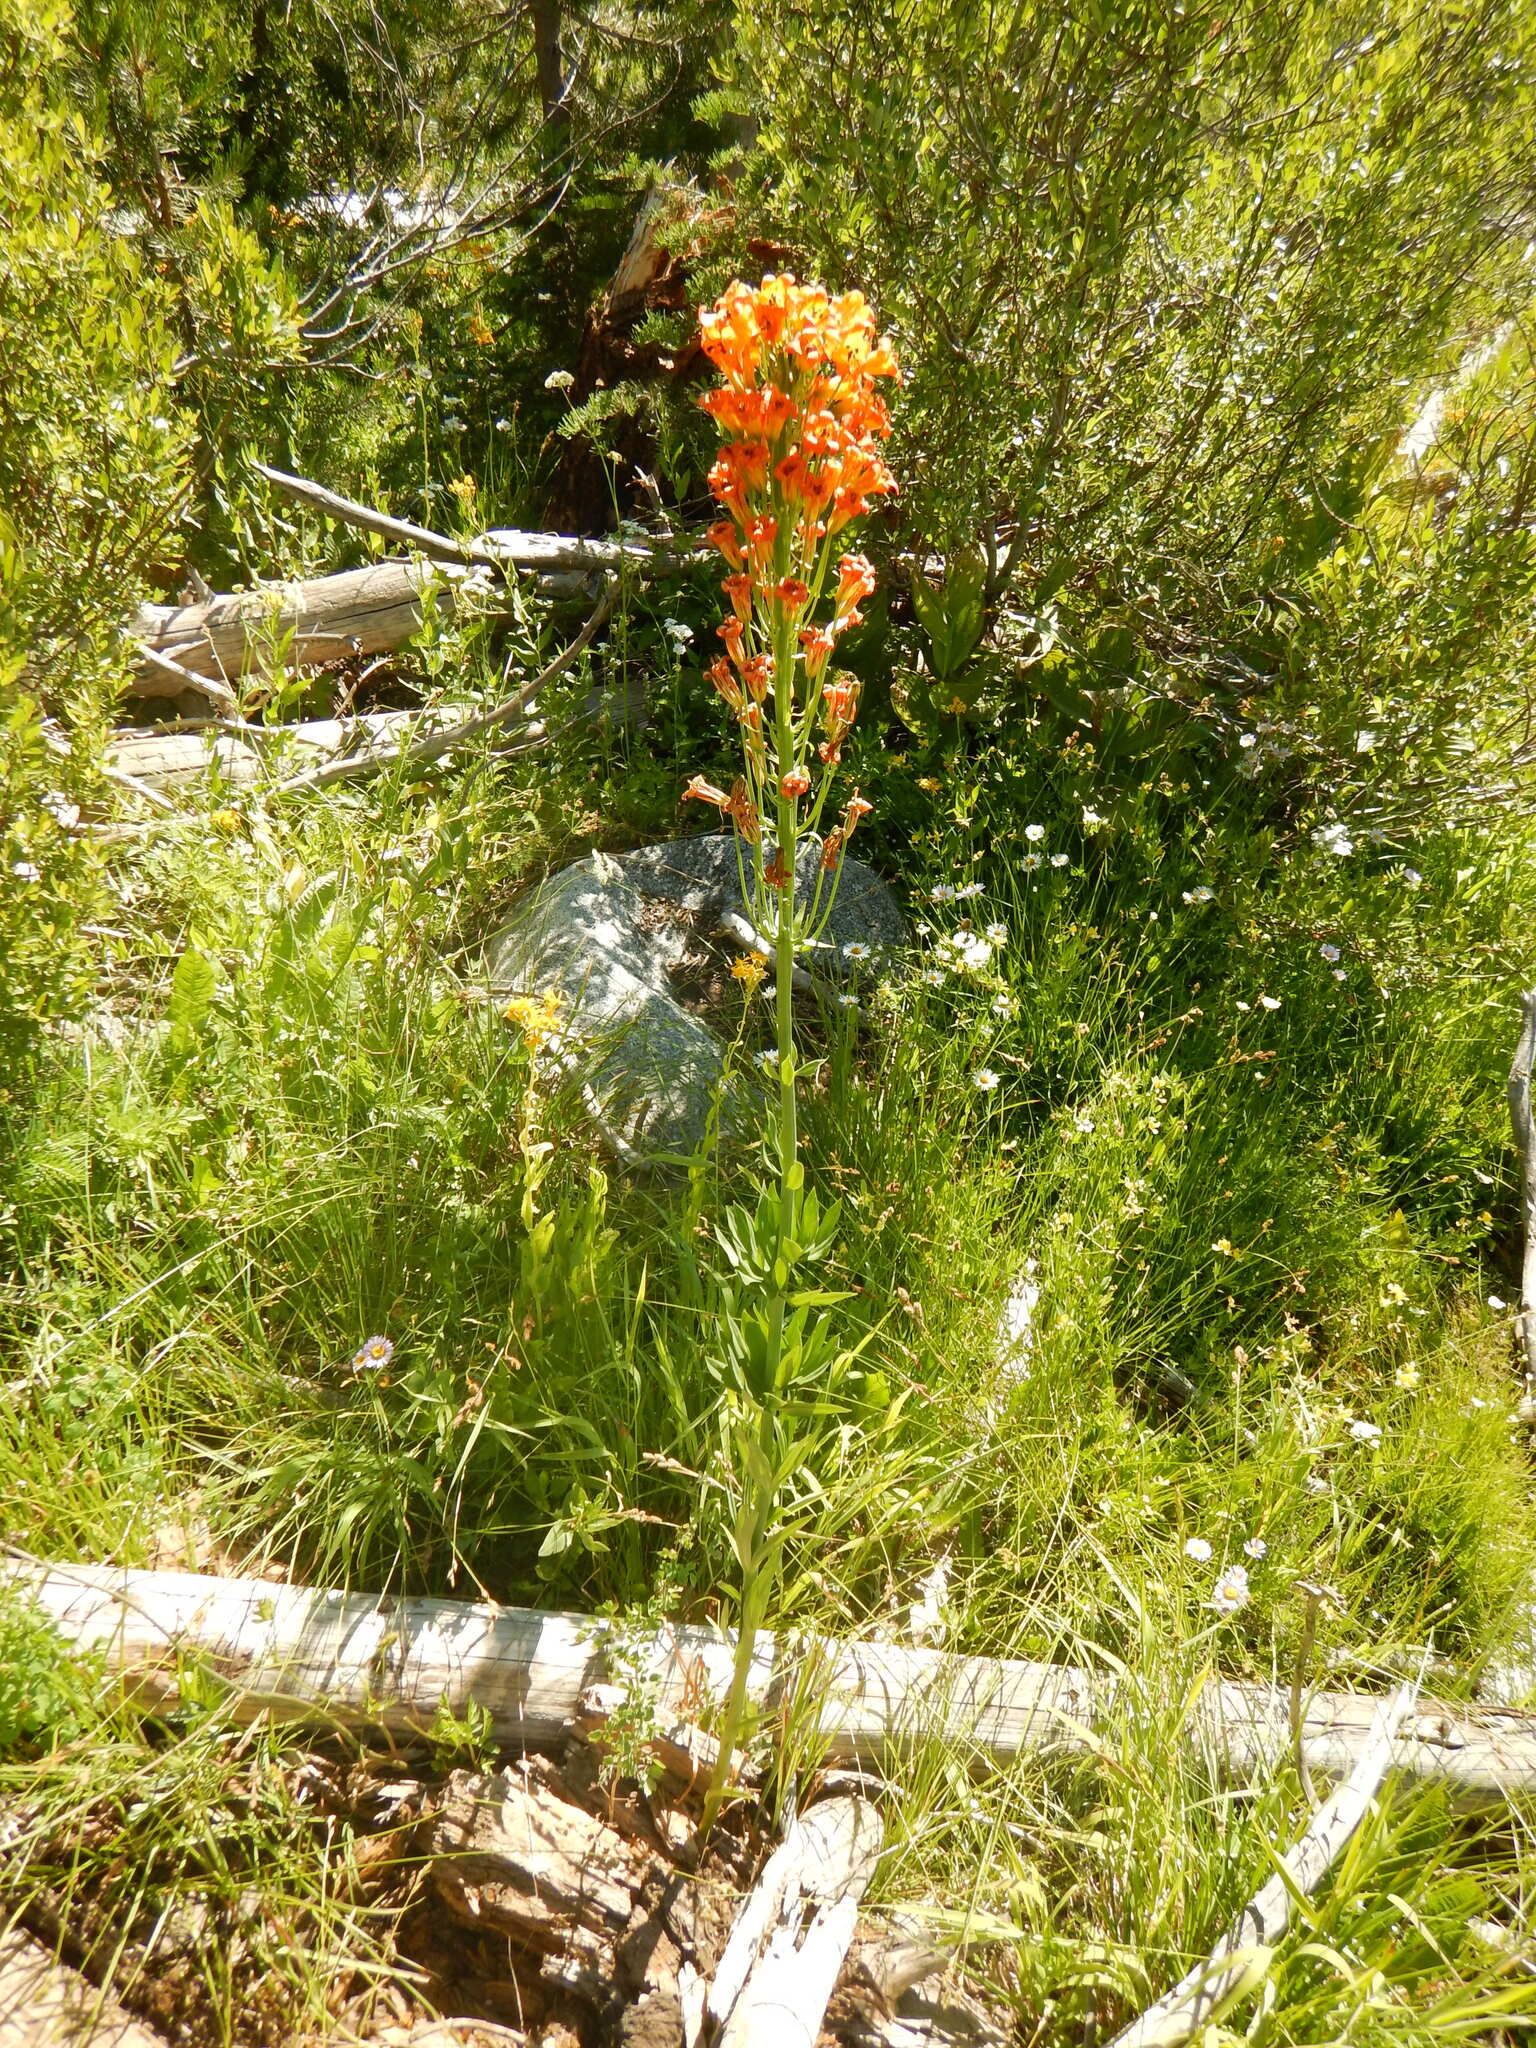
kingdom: Plantae
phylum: Tracheophyta
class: Liliopsida
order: Liliales
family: Liliaceae
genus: Lilium
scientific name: Lilium parvum
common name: Alpine lily
